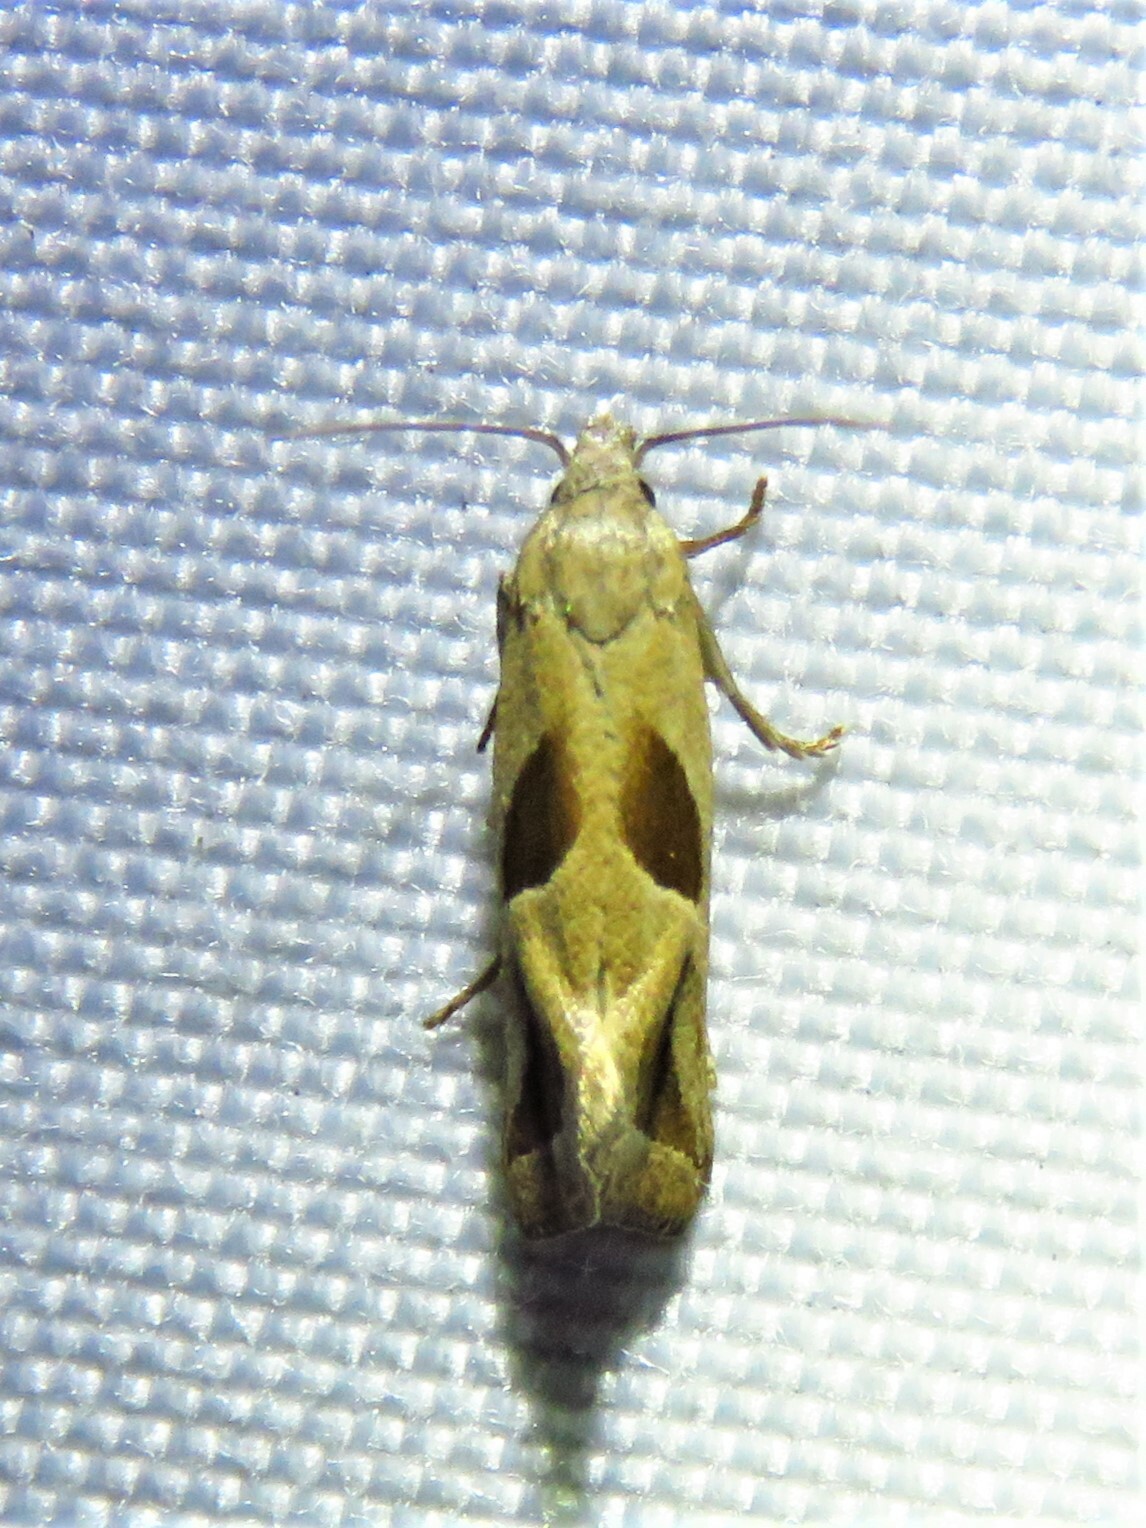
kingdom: Animalia
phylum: Arthropoda
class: Insecta
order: Lepidoptera
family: Tortricidae
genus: Eugnosta
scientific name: Eugnosta bimaculana
